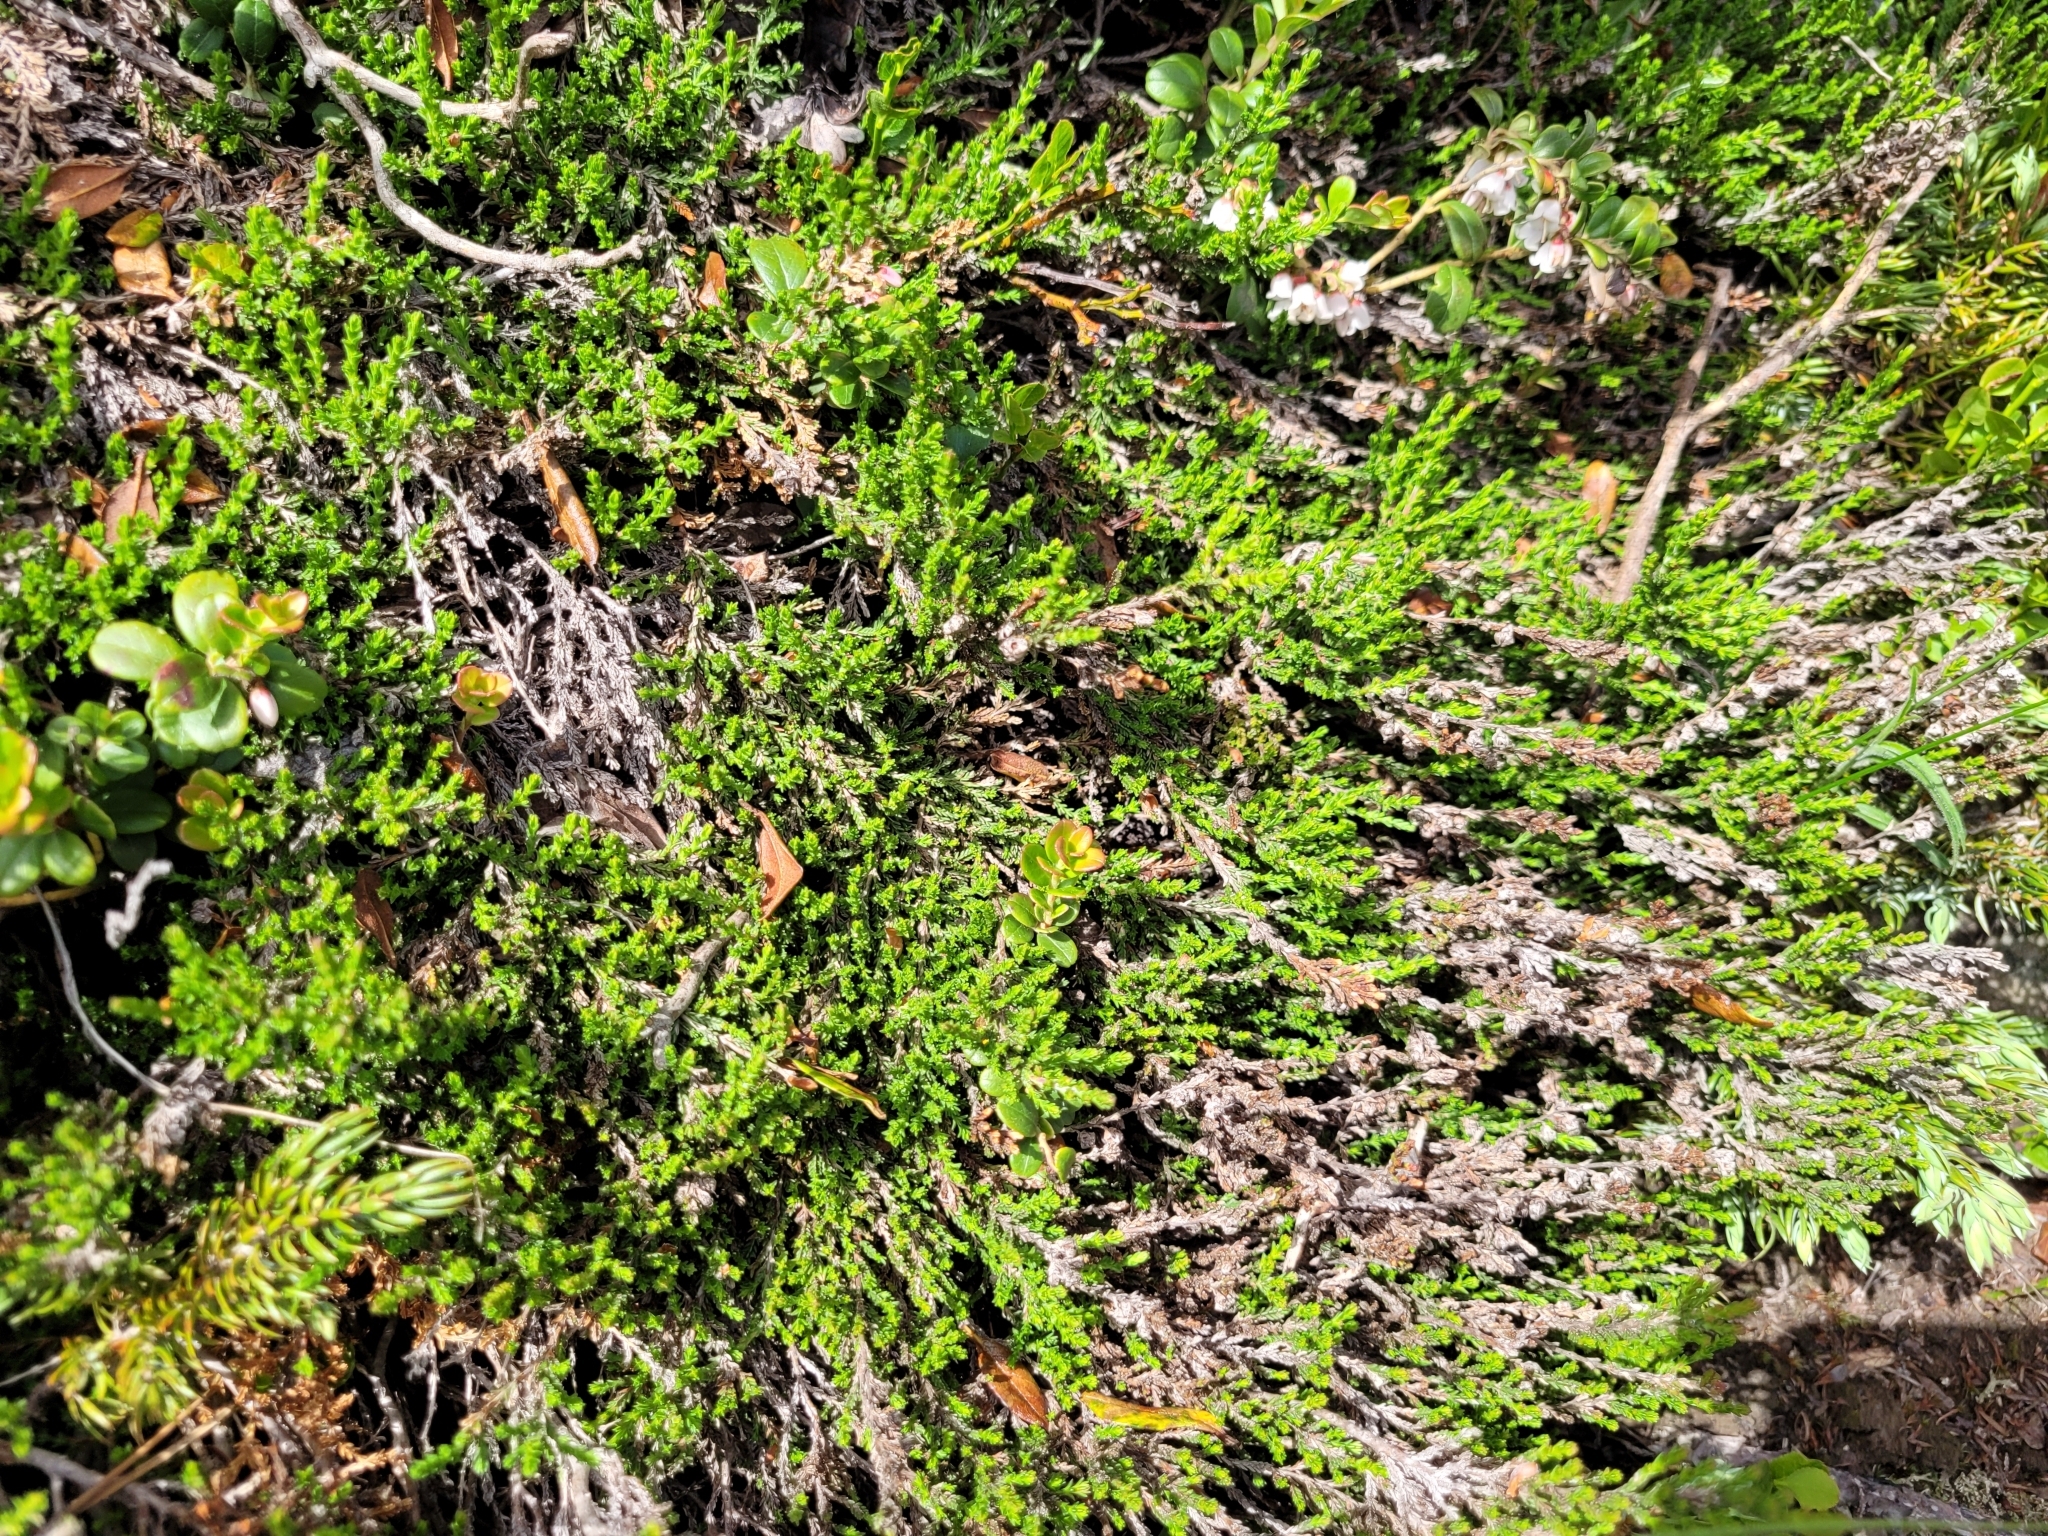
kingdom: Plantae
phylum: Tracheophyta
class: Magnoliopsida
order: Ericales
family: Ericaceae
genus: Calluna
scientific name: Calluna vulgaris
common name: Heather
